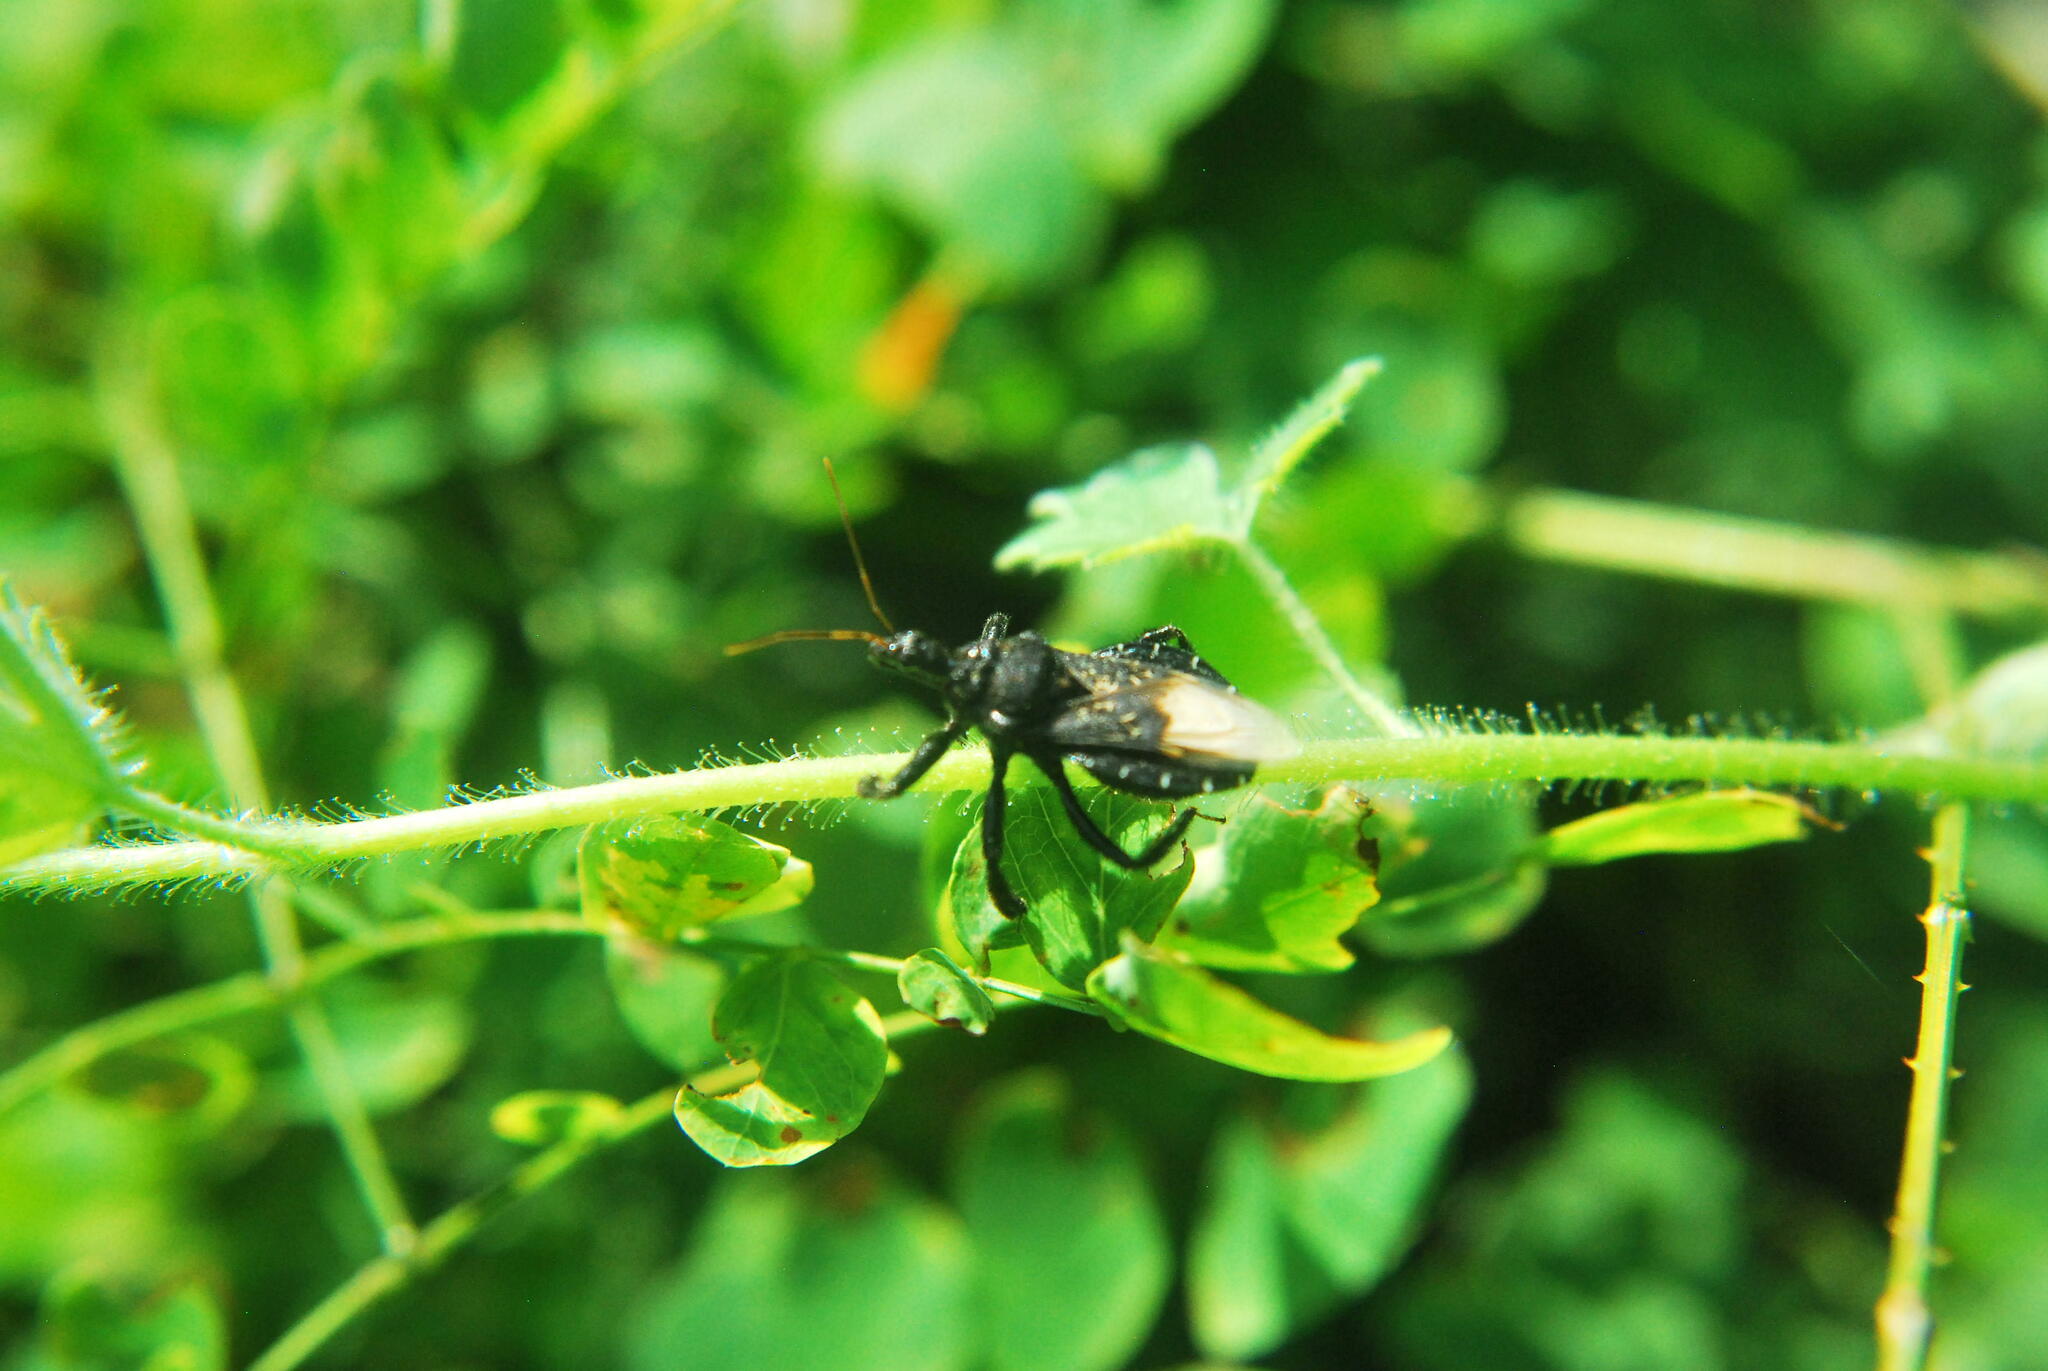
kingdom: Animalia
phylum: Arthropoda
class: Insecta
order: Hemiptera
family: Reduviidae
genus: Apiomerus
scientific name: Apiomerus longispinis
